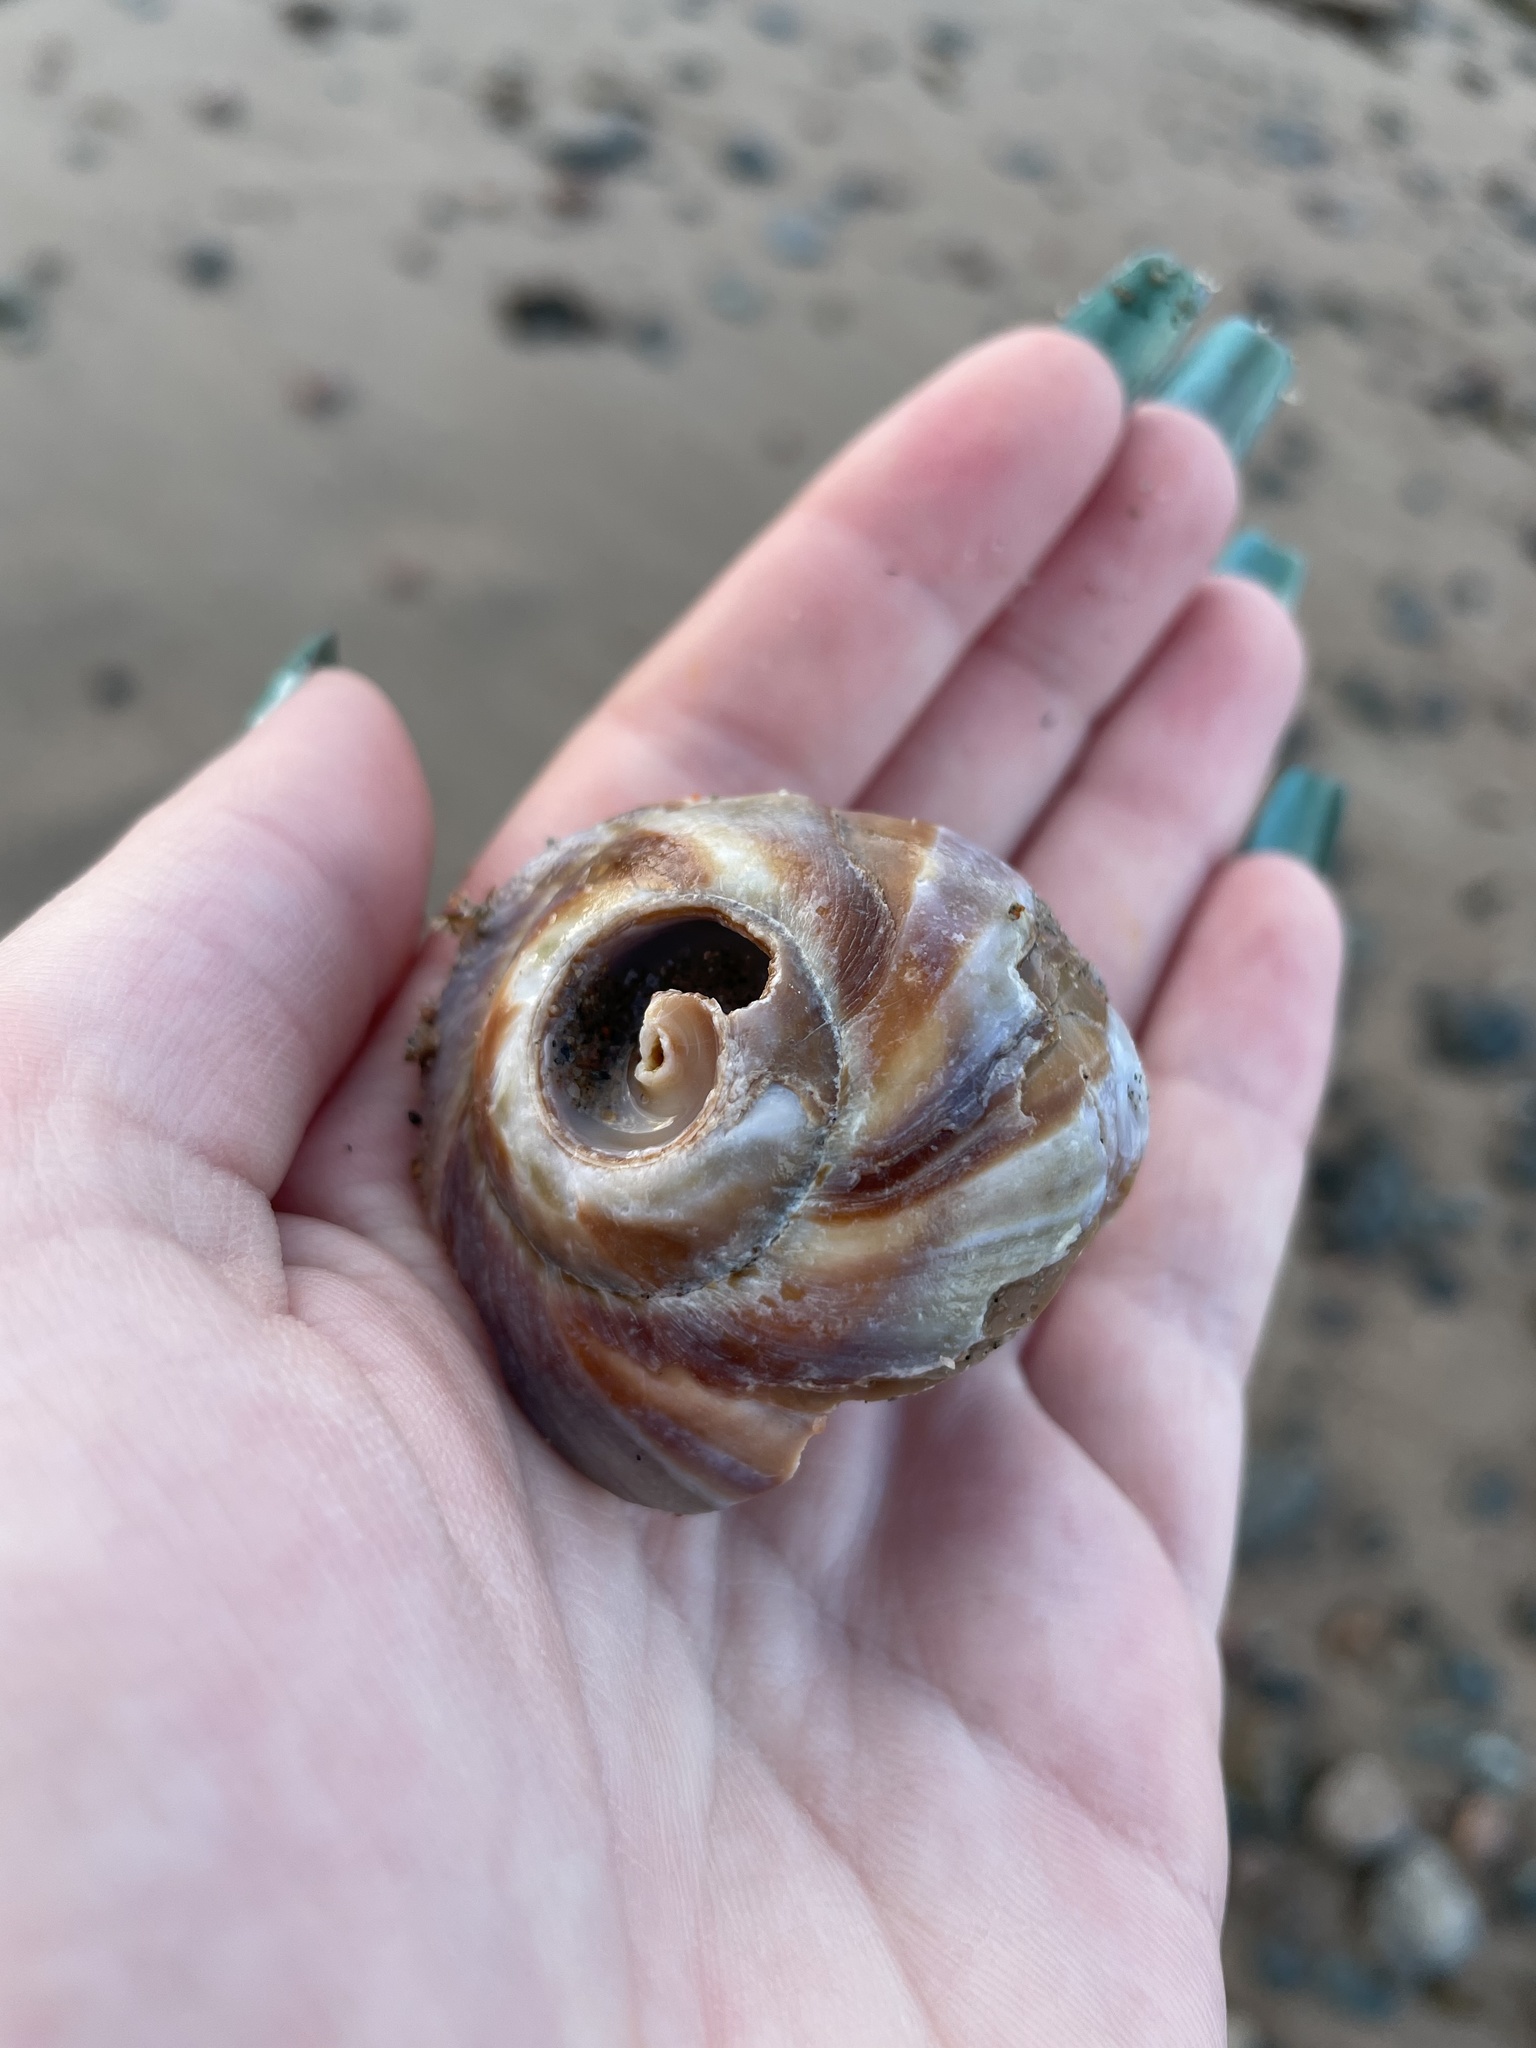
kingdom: Animalia
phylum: Mollusca
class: Gastropoda
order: Littorinimorpha
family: Naticidae
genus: Euspira
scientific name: Euspira heros
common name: Common northern moonsnail
